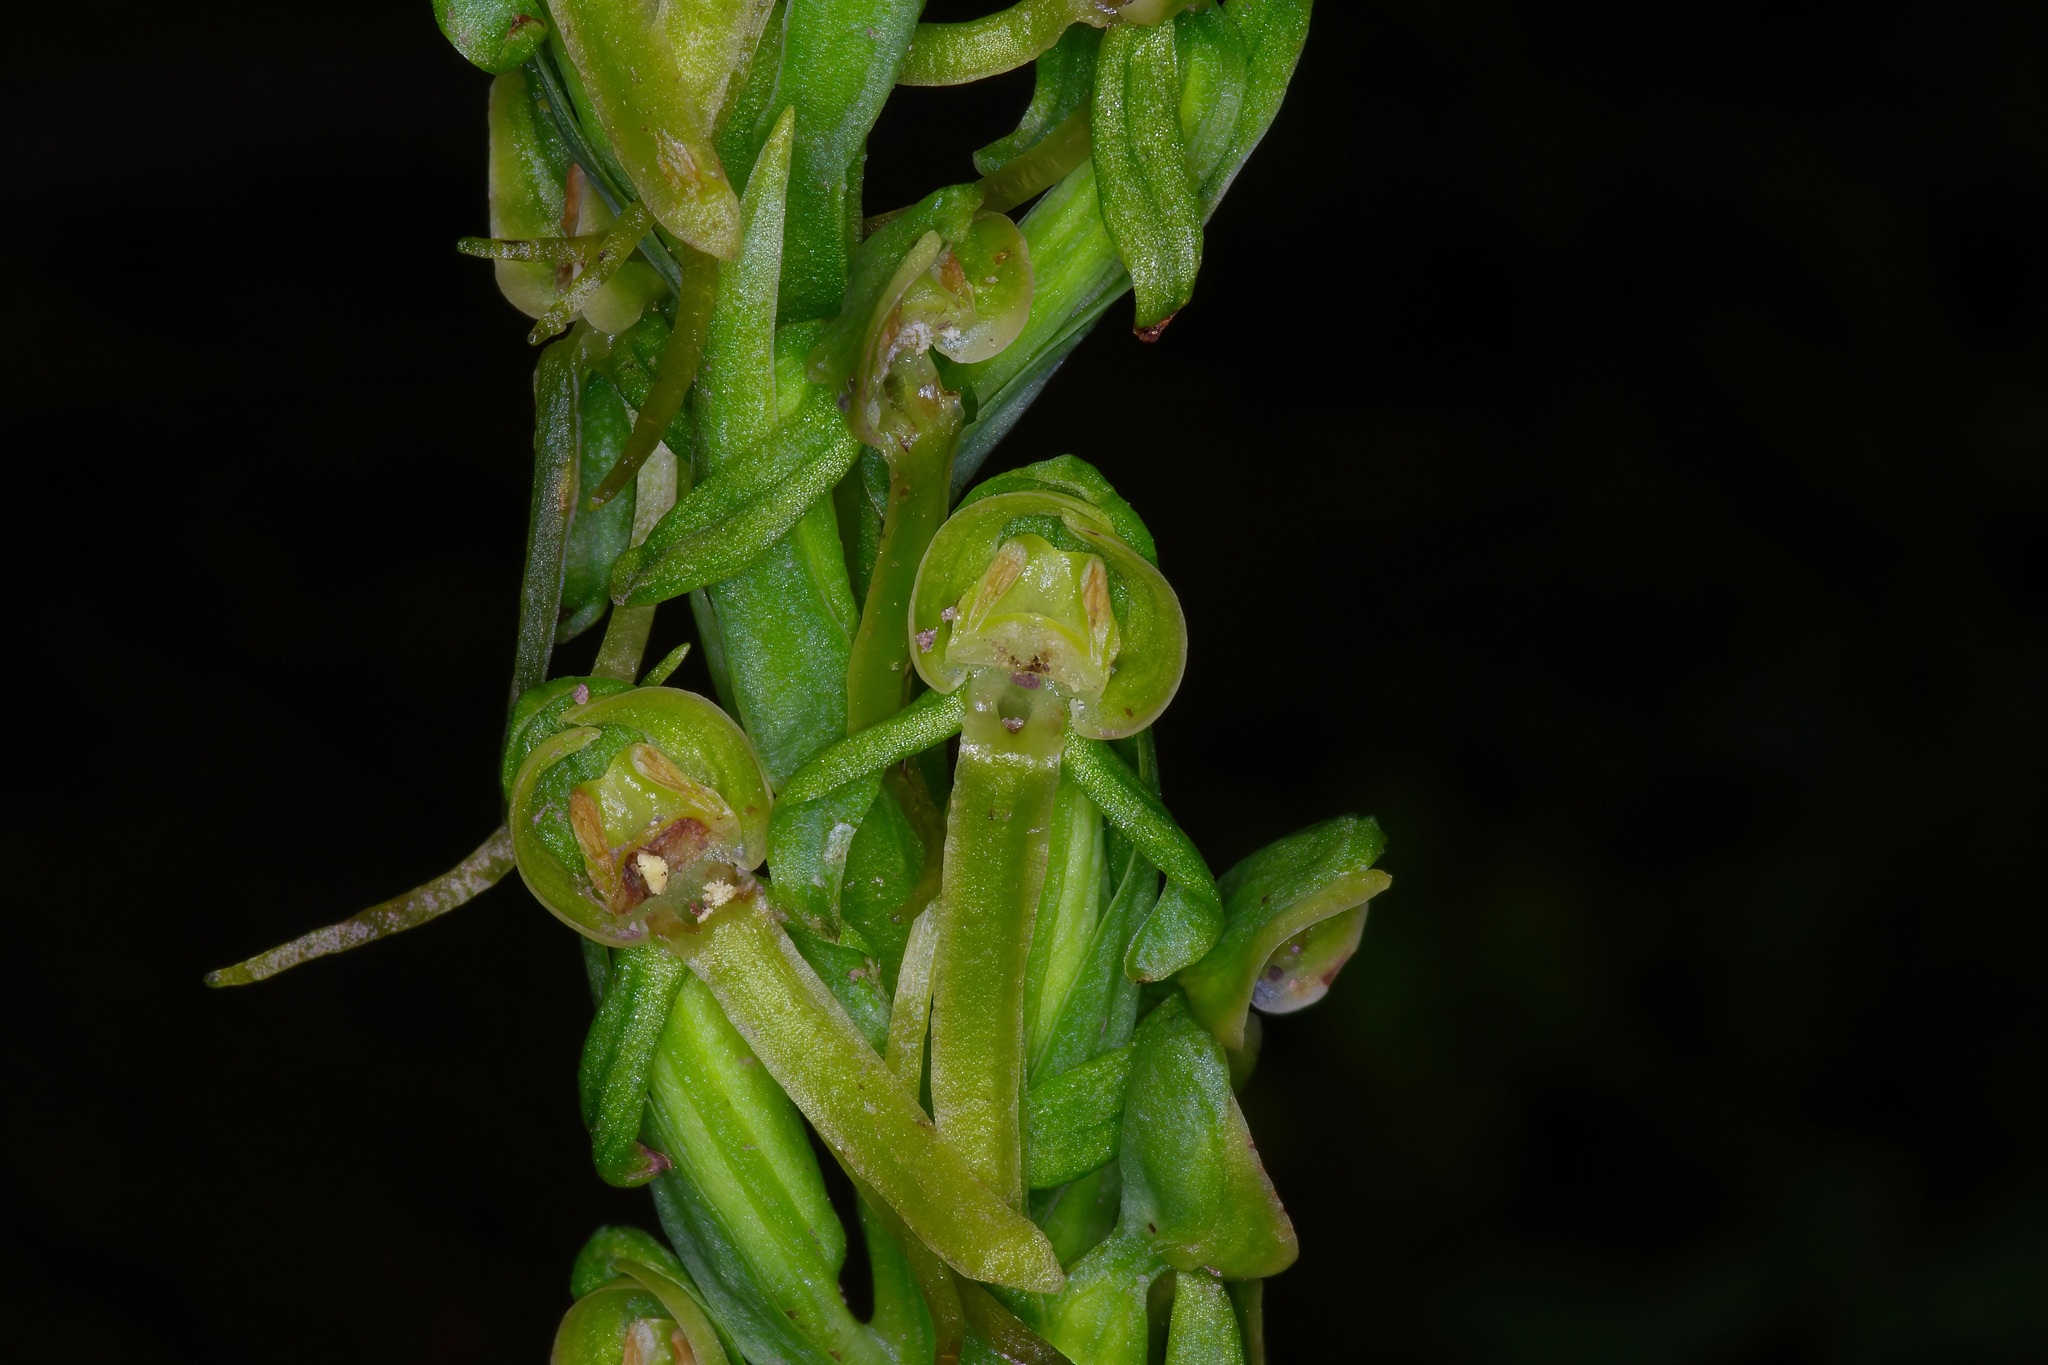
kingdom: Plantae
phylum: Tracheophyta
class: Liliopsida
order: Asparagales
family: Orchidaceae
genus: Platanthera
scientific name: Platanthera brevifolia
